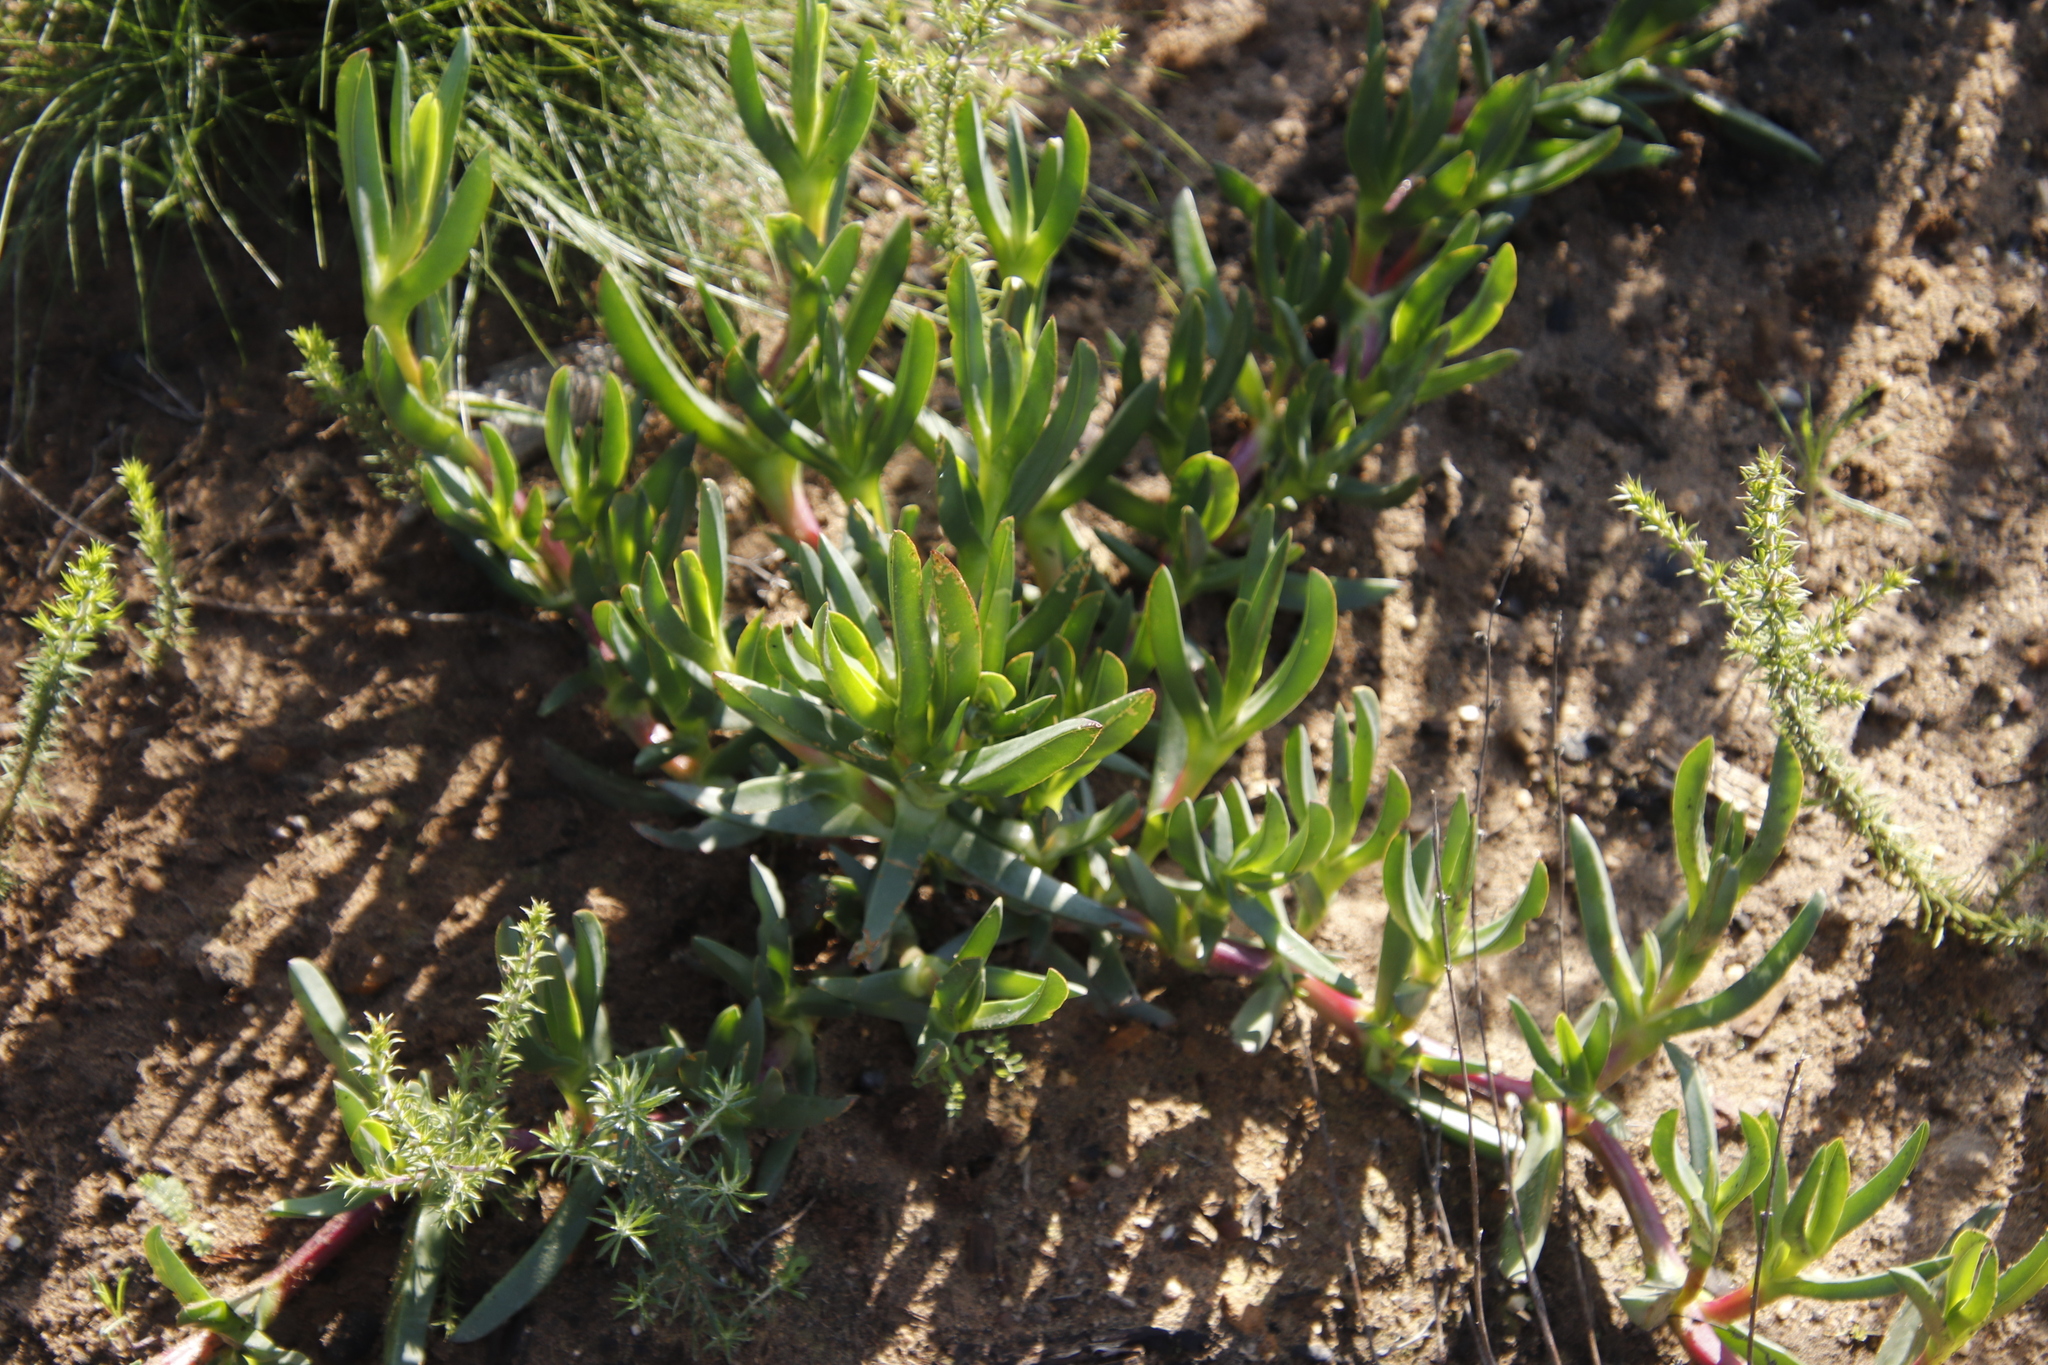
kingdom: Plantae
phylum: Tracheophyta
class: Magnoliopsida
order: Caryophyllales
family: Aizoaceae
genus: Carpobrotus
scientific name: Carpobrotus edulis
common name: Hottentot-fig
